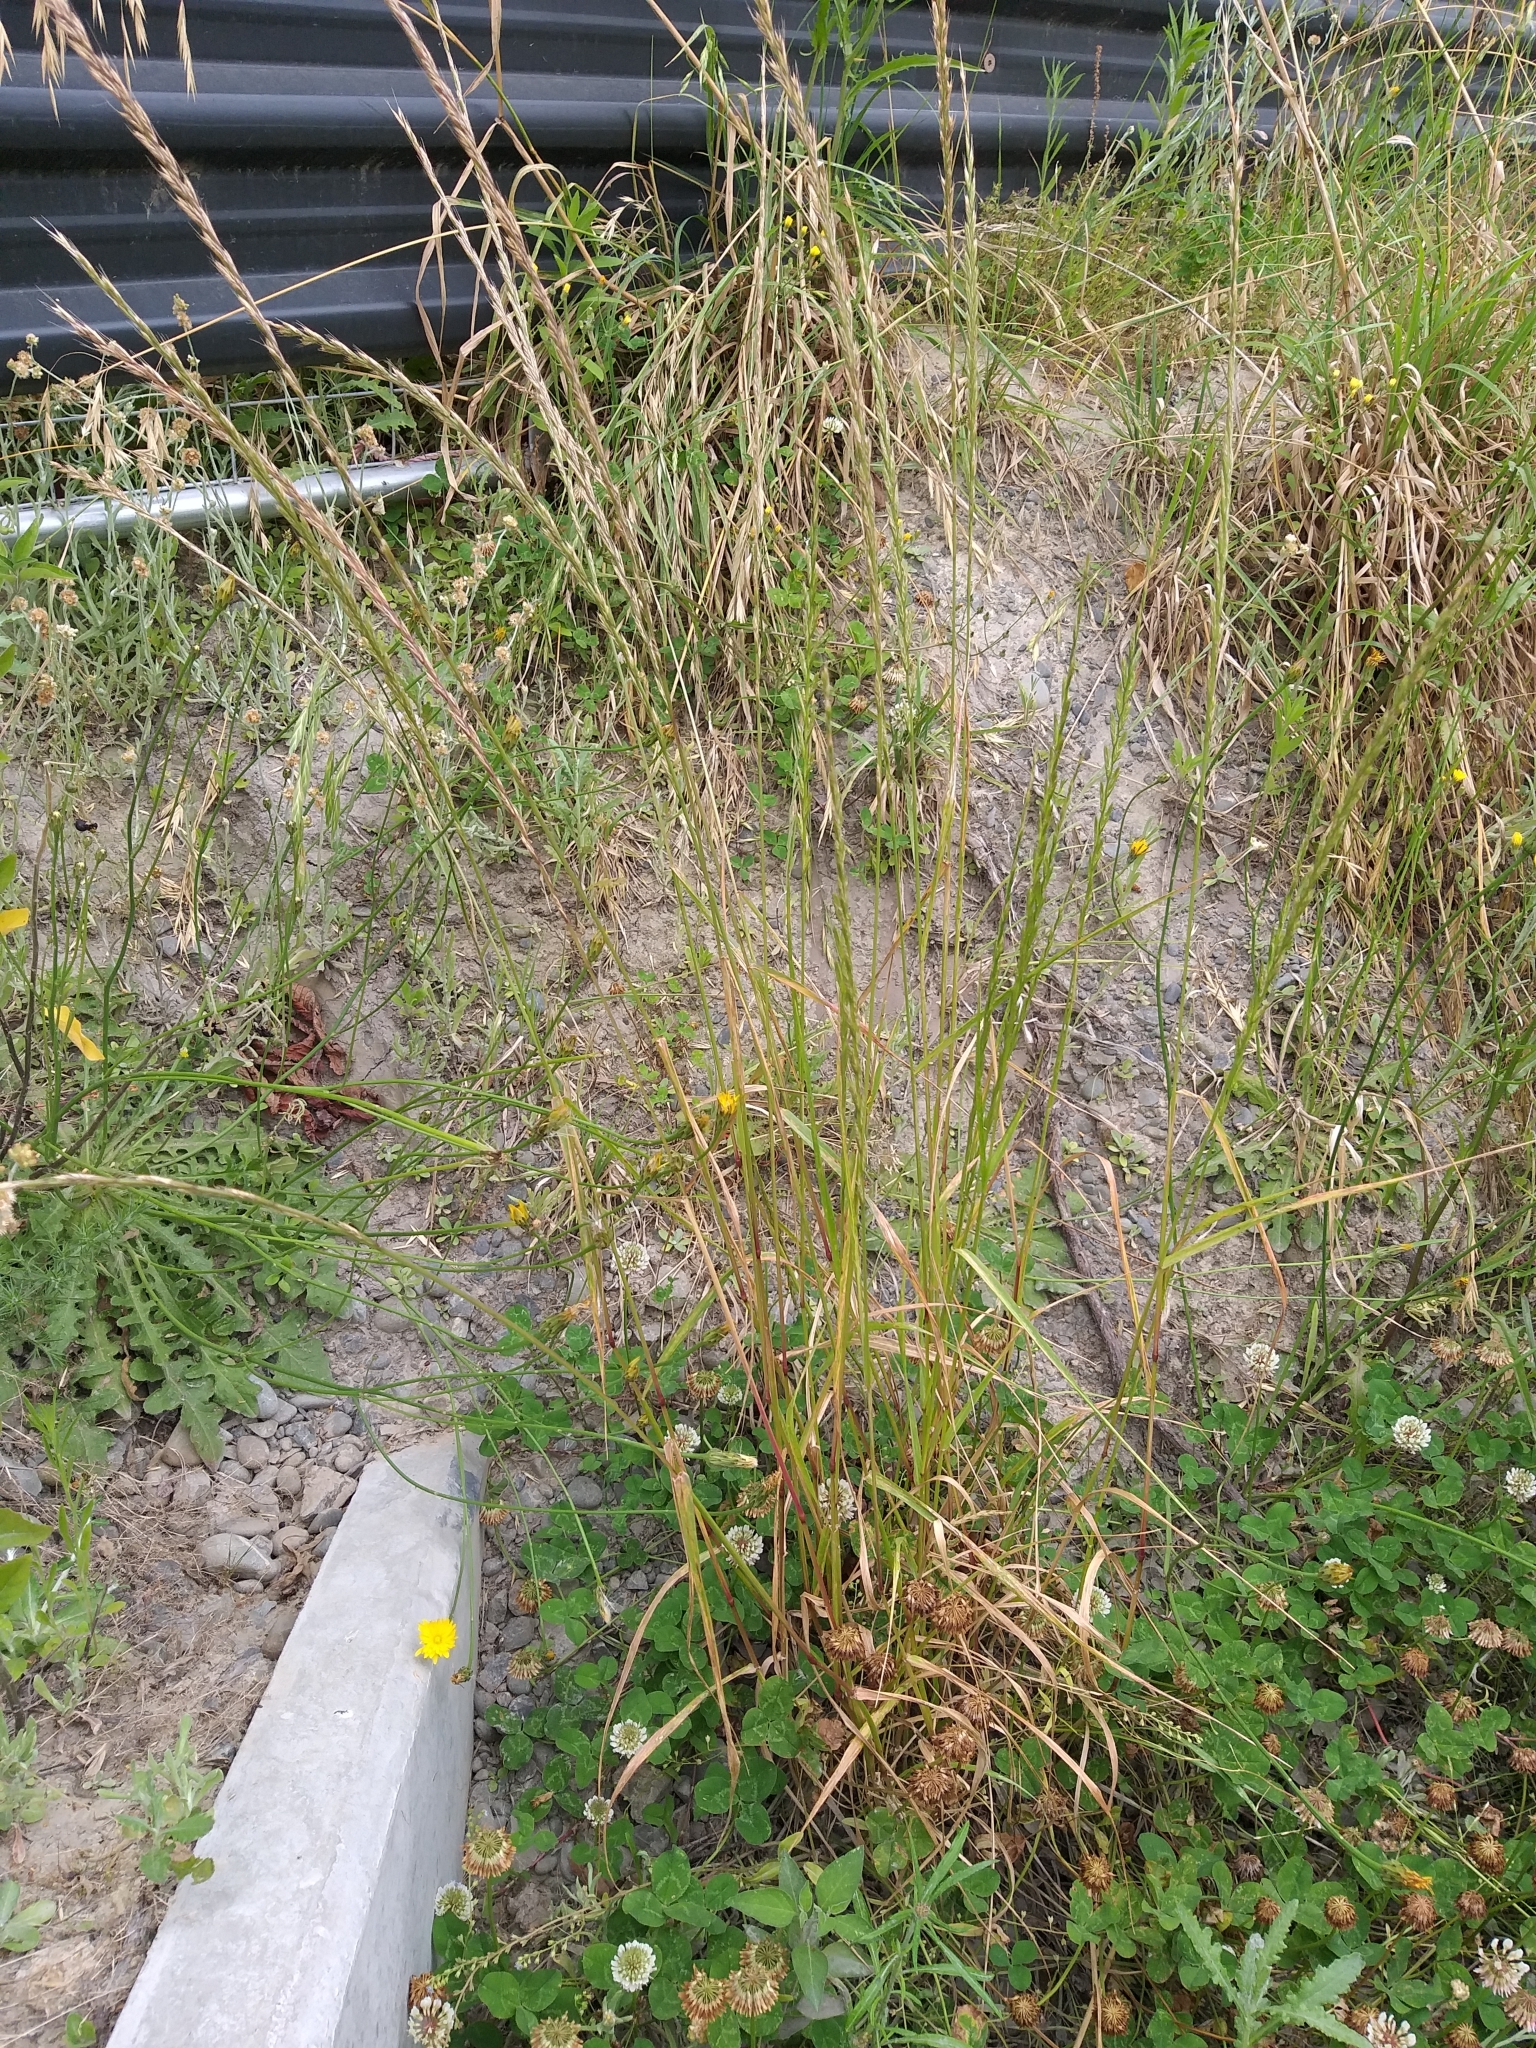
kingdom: Plantae
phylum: Tracheophyta
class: Liliopsida
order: Poales
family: Poaceae
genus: Lolium
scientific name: Lolium multiflorum
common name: Annual ryegrass
